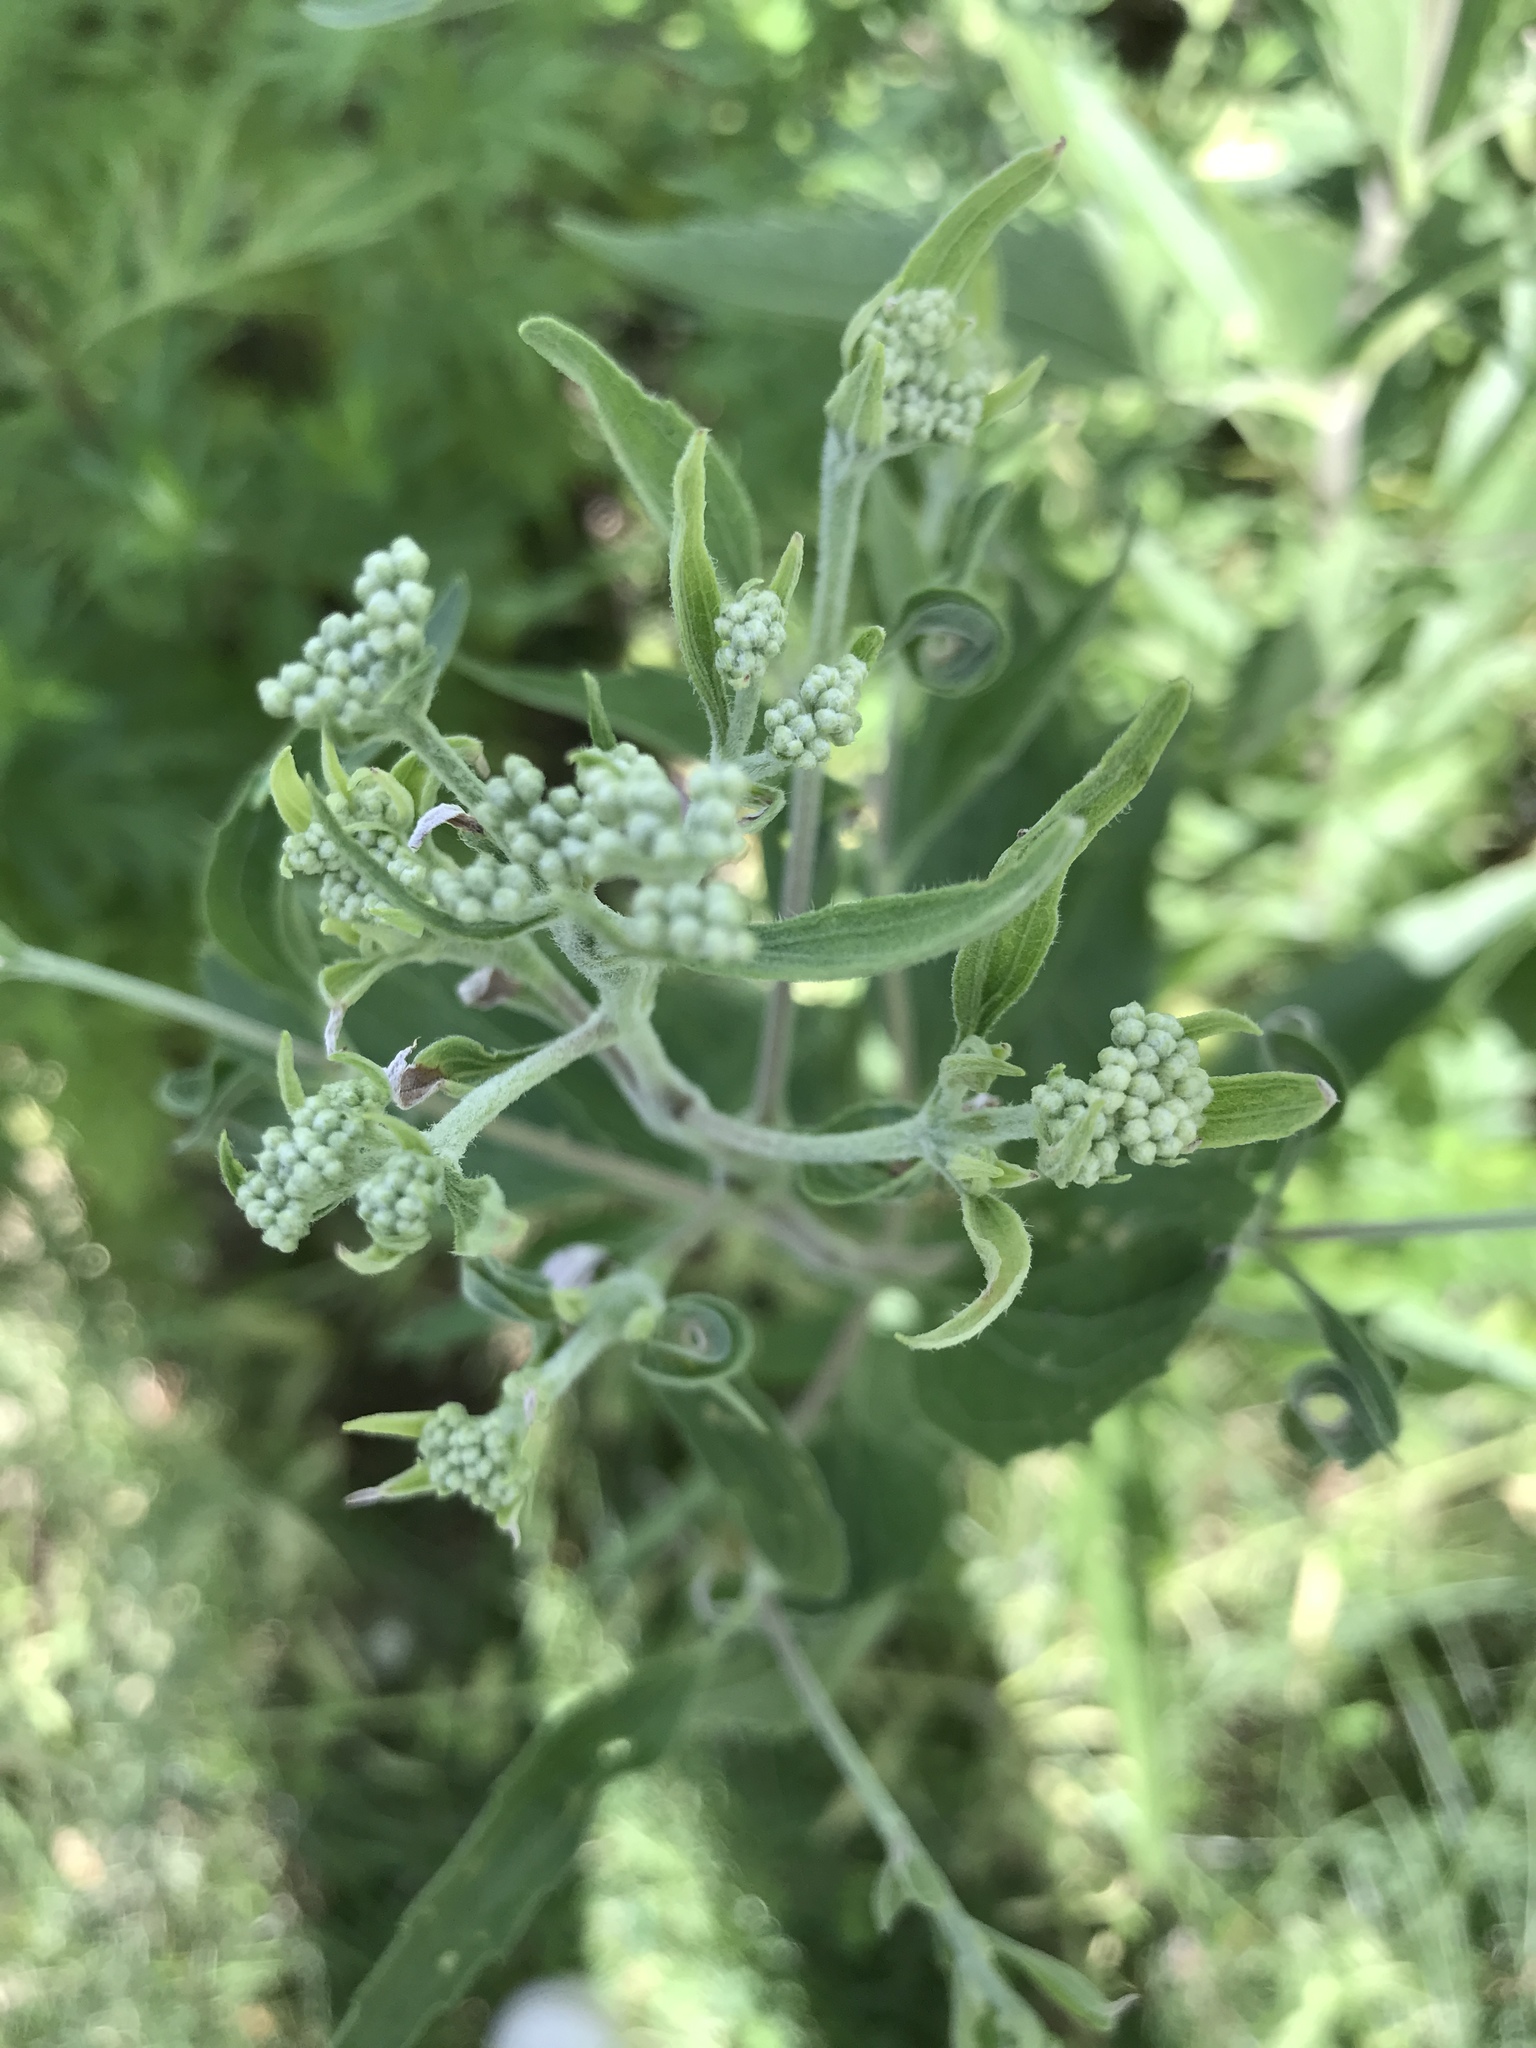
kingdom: Plantae
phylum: Tracheophyta
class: Magnoliopsida
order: Asterales
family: Asteraceae
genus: Eupatorium
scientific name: Eupatorium serotinum
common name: Late boneset
